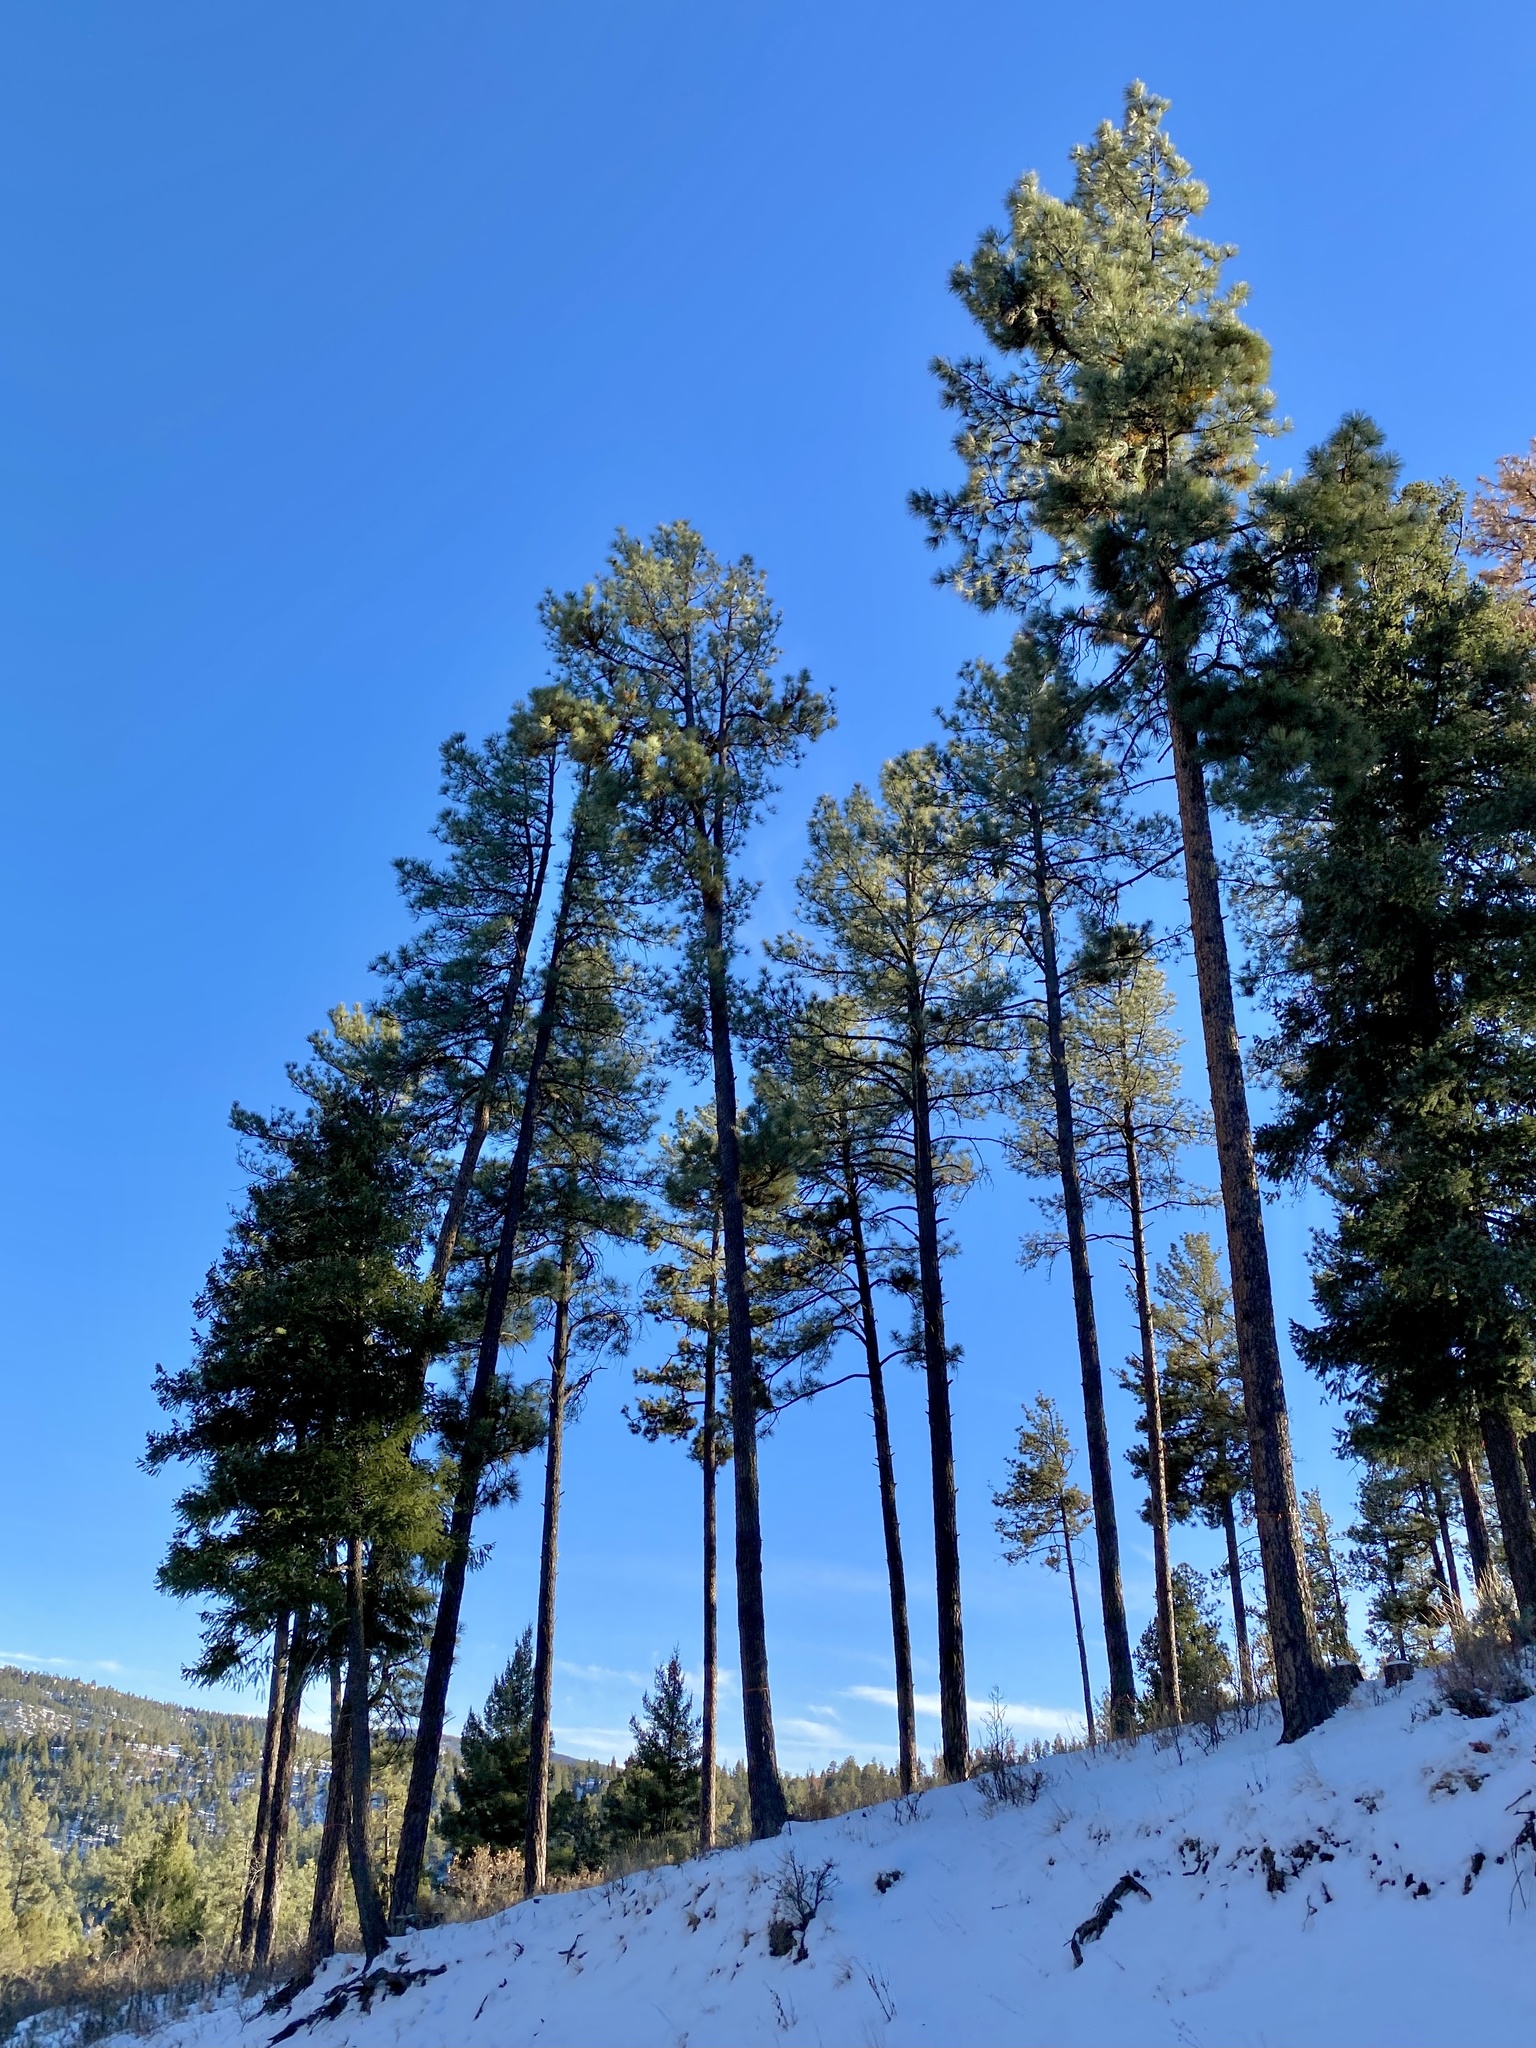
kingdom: Plantae
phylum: Tracheophyta
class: Pinopsida
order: Pinales
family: Pinaceae
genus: Pinus
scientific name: Pinus ponderosa
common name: Western yellow-pine
